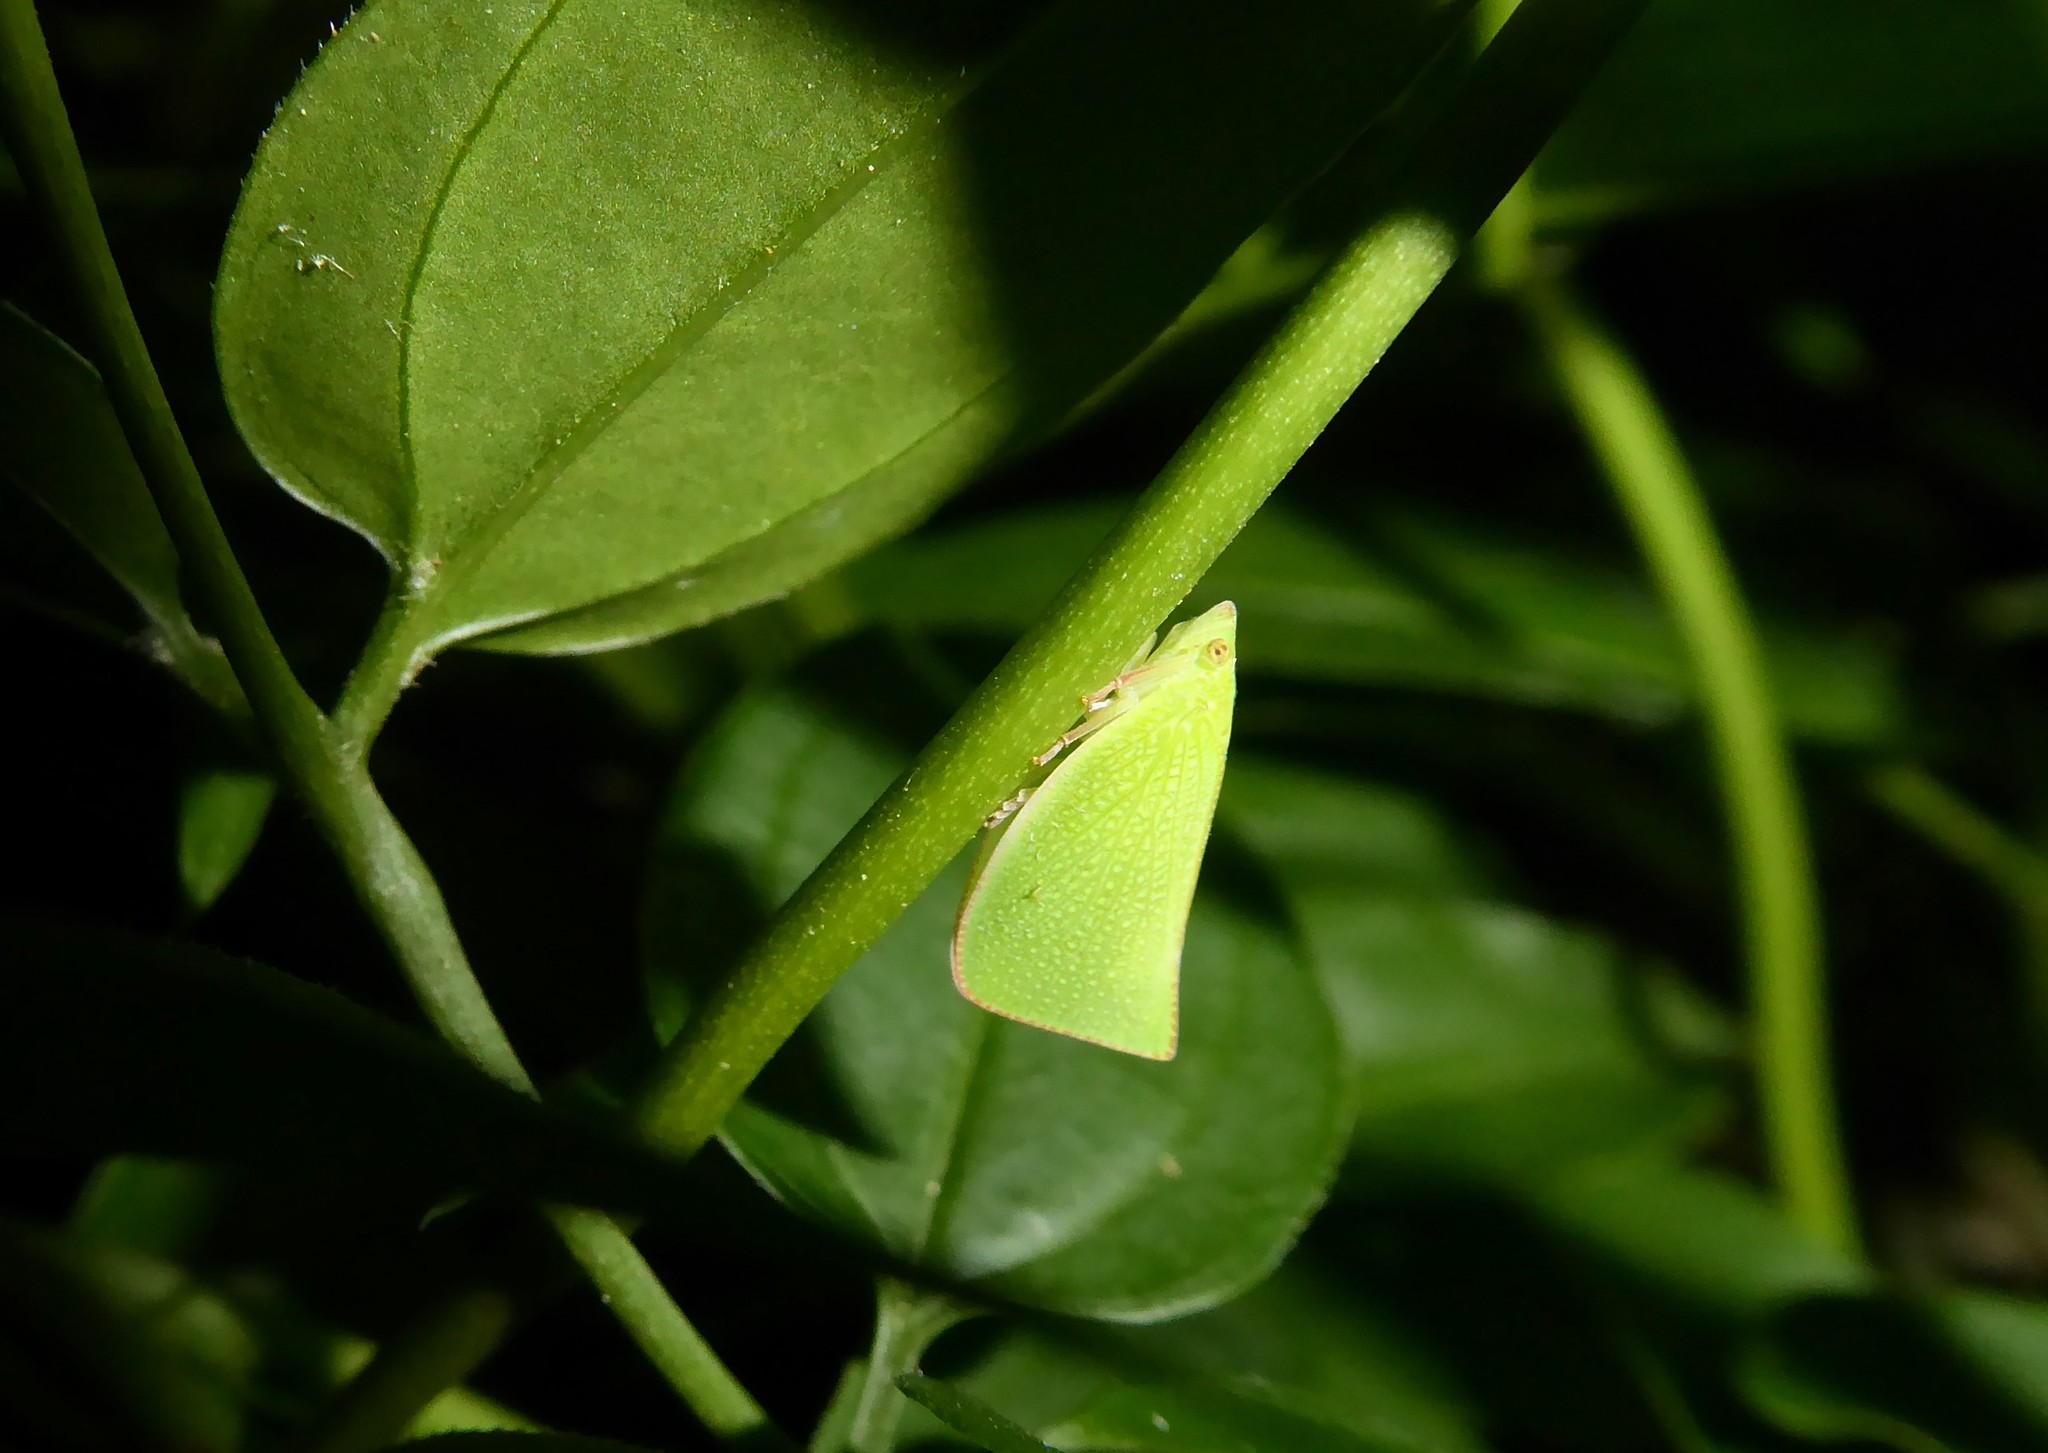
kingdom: Animalia
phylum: Arthropoda
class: Insecta
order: Hemiptera
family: Flatidae
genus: Siphanta
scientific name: Siphanta acuta
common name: Torpedo bug
